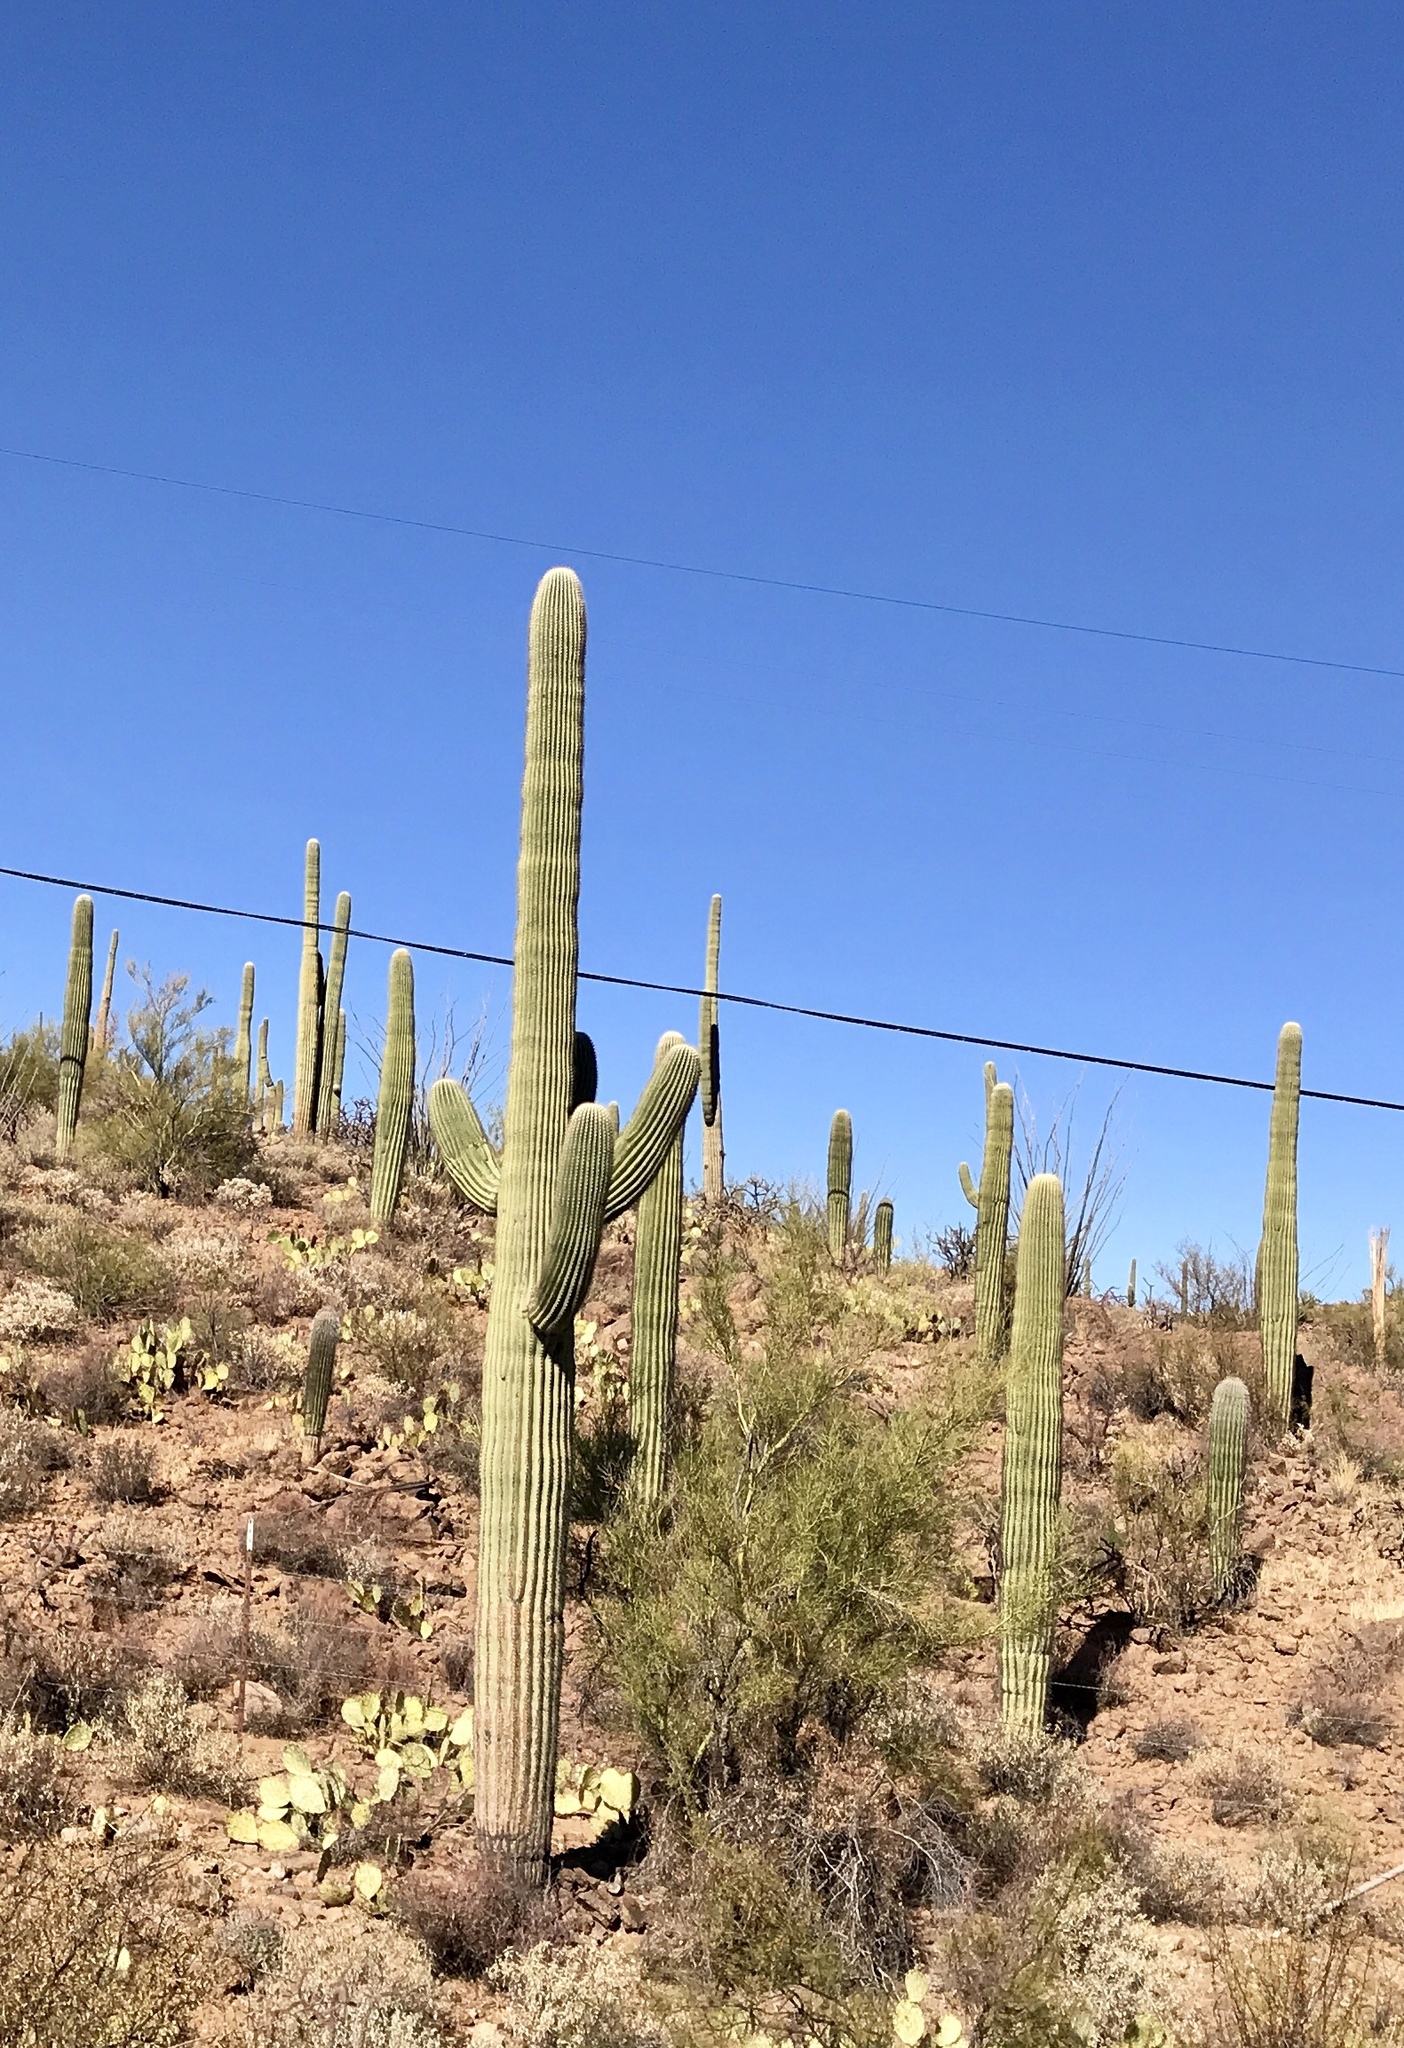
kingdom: Plantae
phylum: Tracheophyta
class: Magnoliopsida
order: Caryophyllales
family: Cactaceae
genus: Carnegiea
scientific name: Carnegiea gigantea
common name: Saguaro
